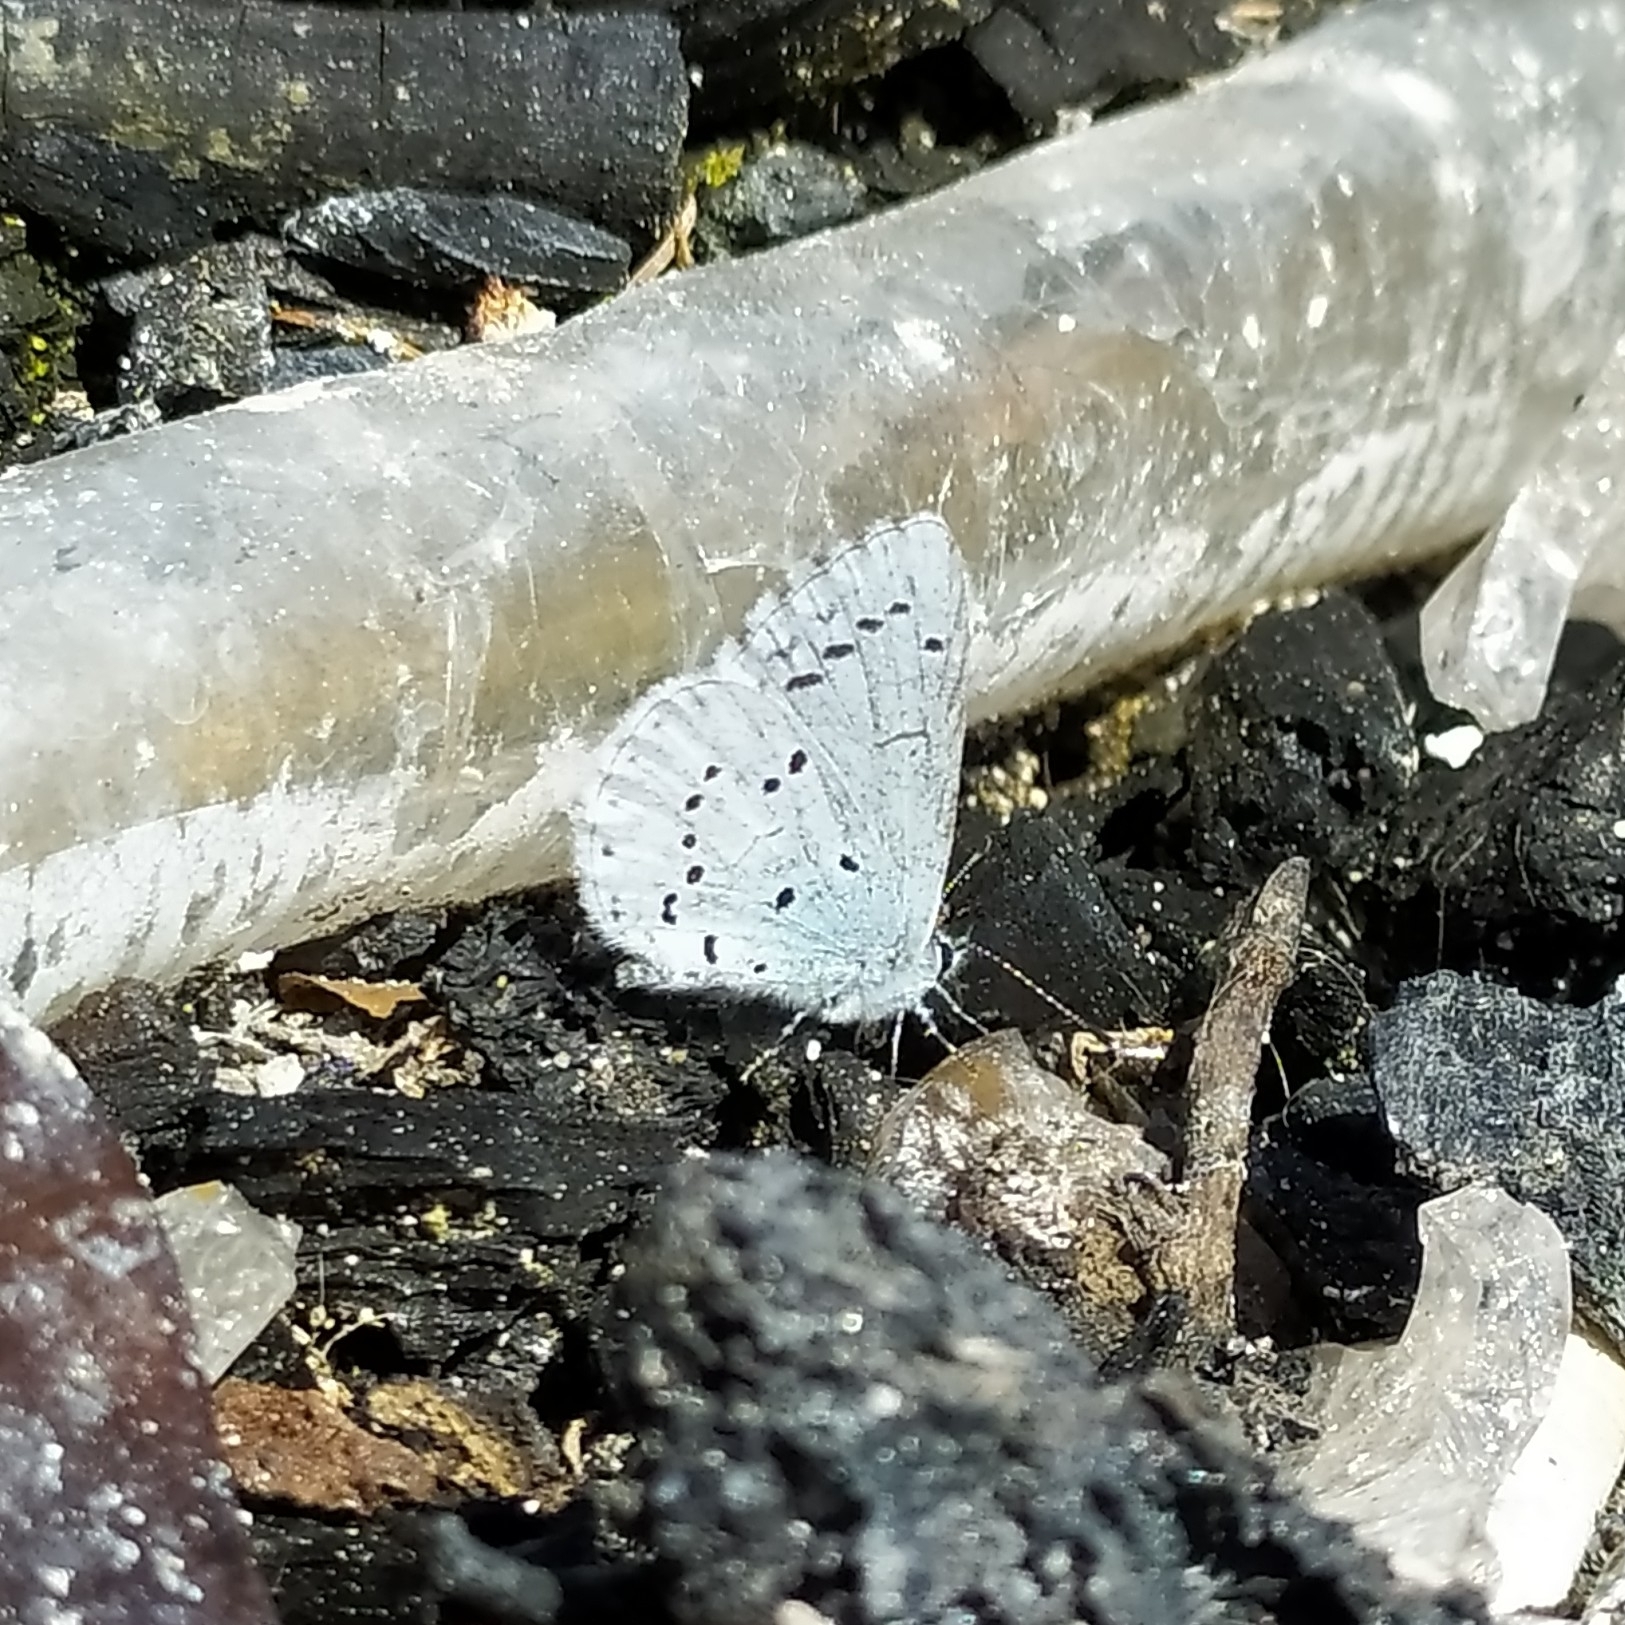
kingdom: Animalia
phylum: Arthropoda
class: Insecta
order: Lepidoptera
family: Lycaenidae
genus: Celastrina
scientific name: Celastrina argiolus
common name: Holly blue
